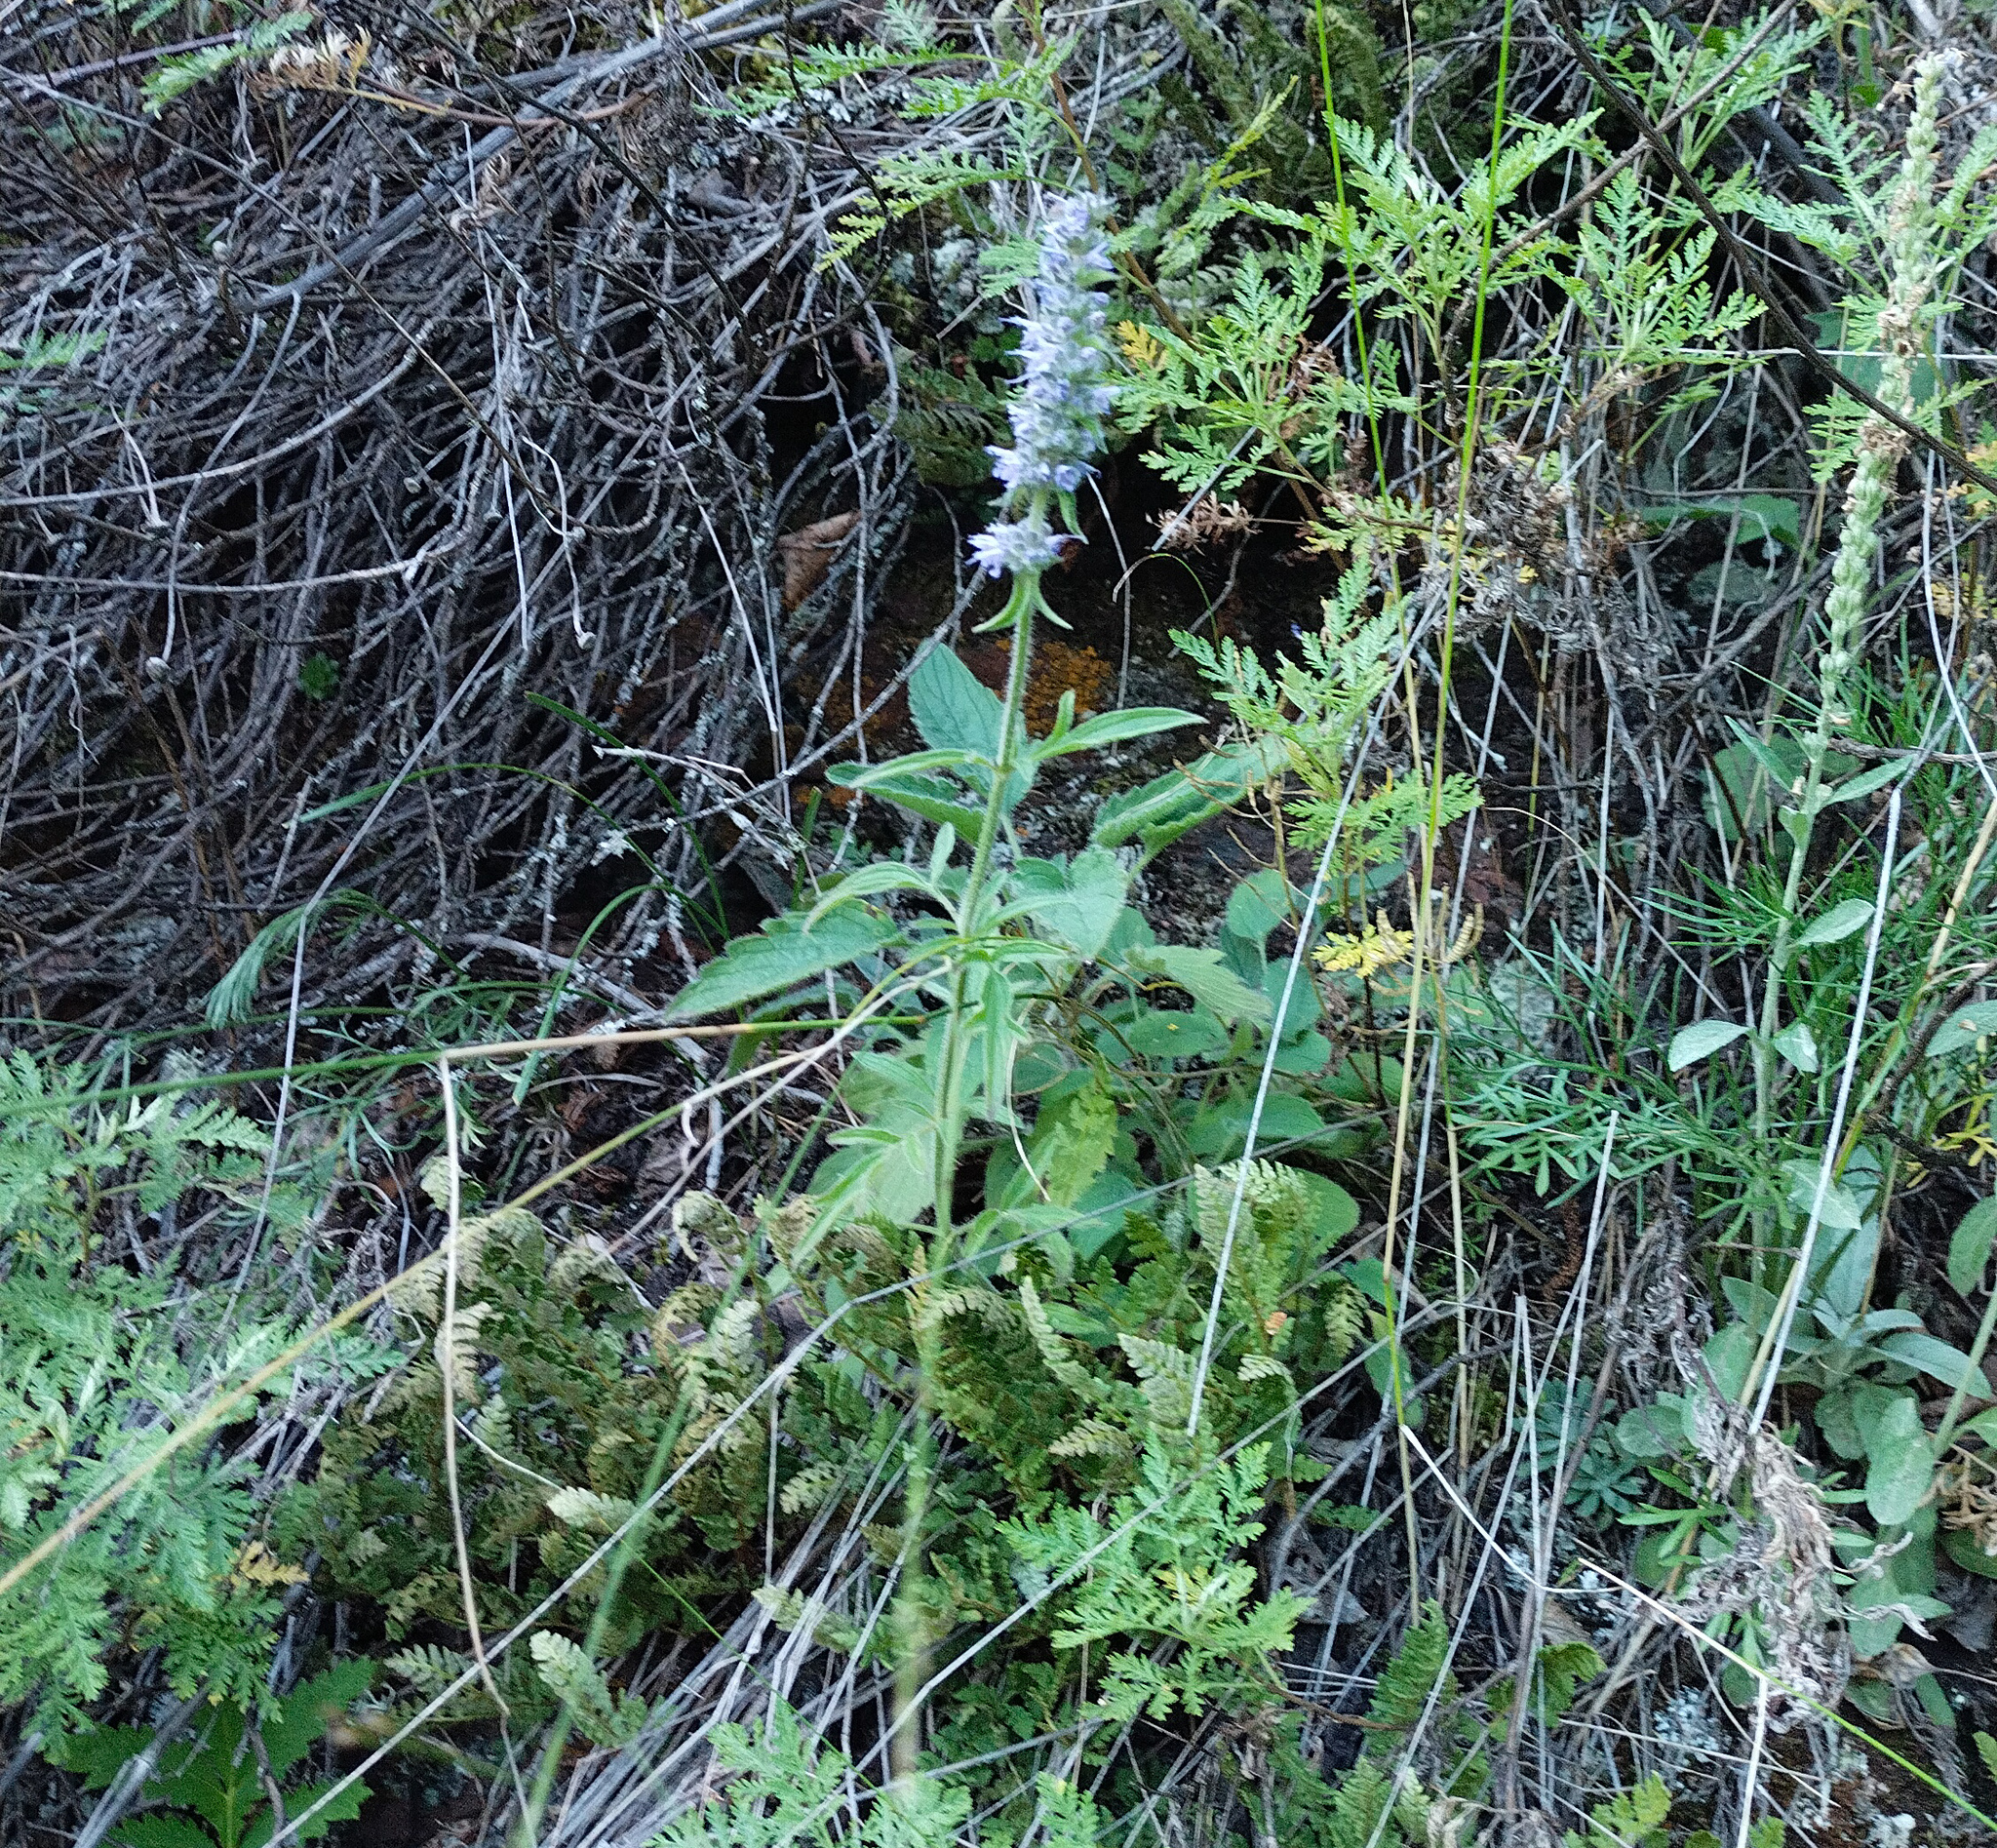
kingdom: Plantae
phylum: Tracheophyta
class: Magnoliopsida
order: Lamiales
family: Lamiaceae
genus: Nepeta
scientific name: Nepeta multifida
